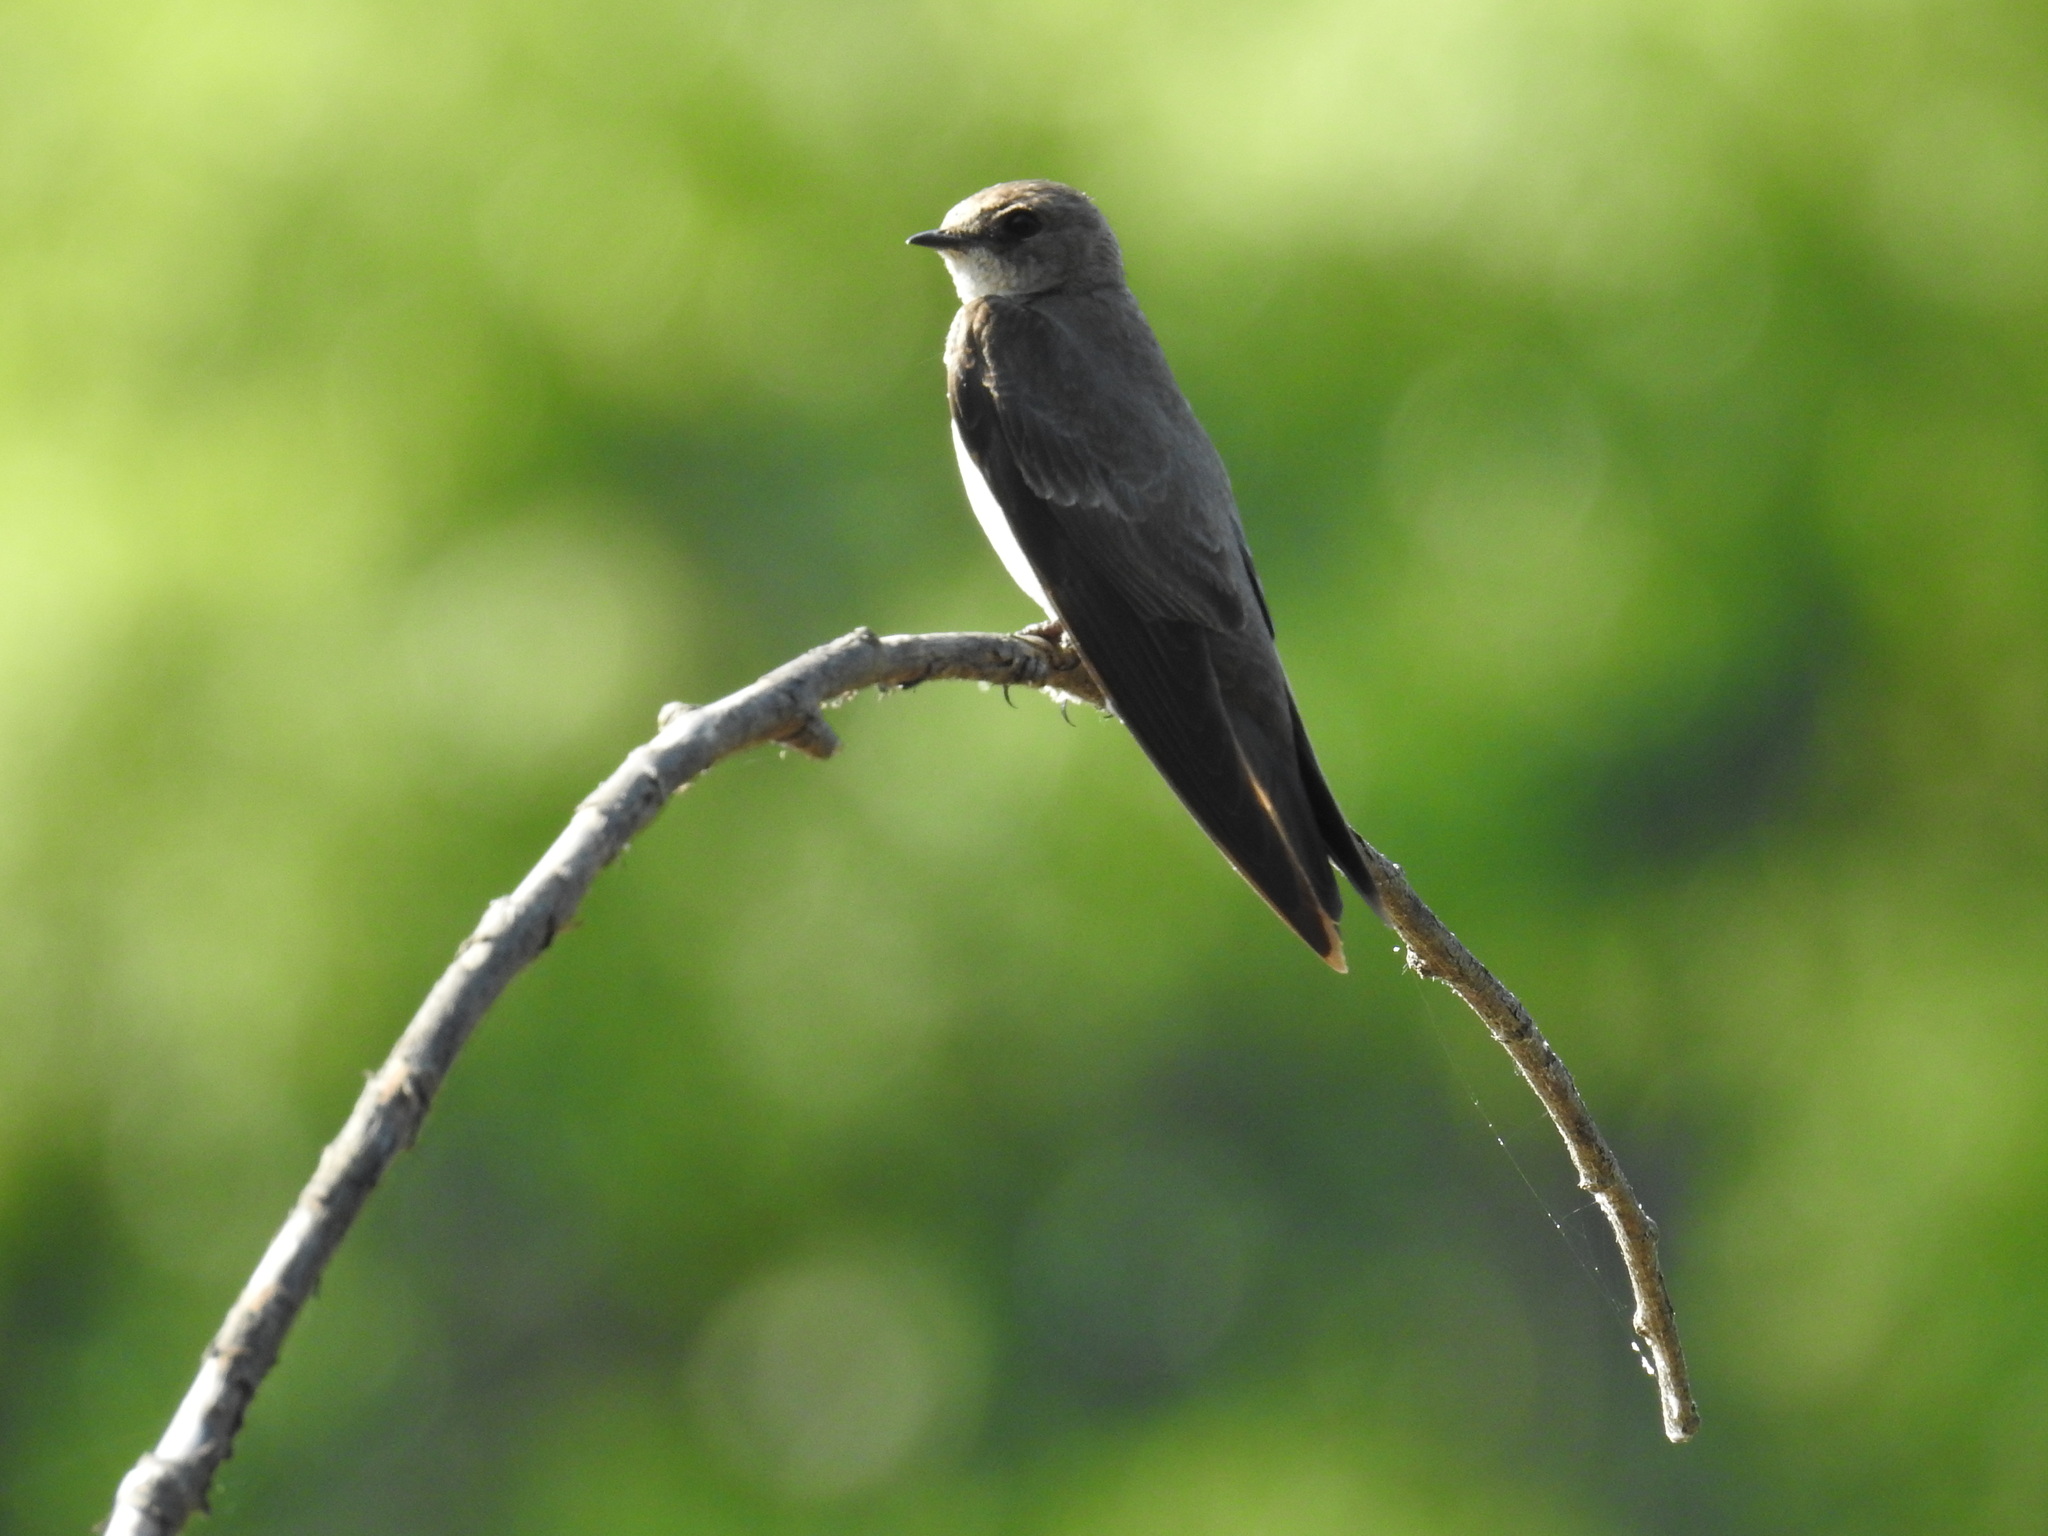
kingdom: Animalia
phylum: Chordata
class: Aves
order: Passeriformes
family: Hirundinidae
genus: Stelgidopteryx
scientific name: Stelgidopteryx serripennis
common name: Northern rough-winged swallow
